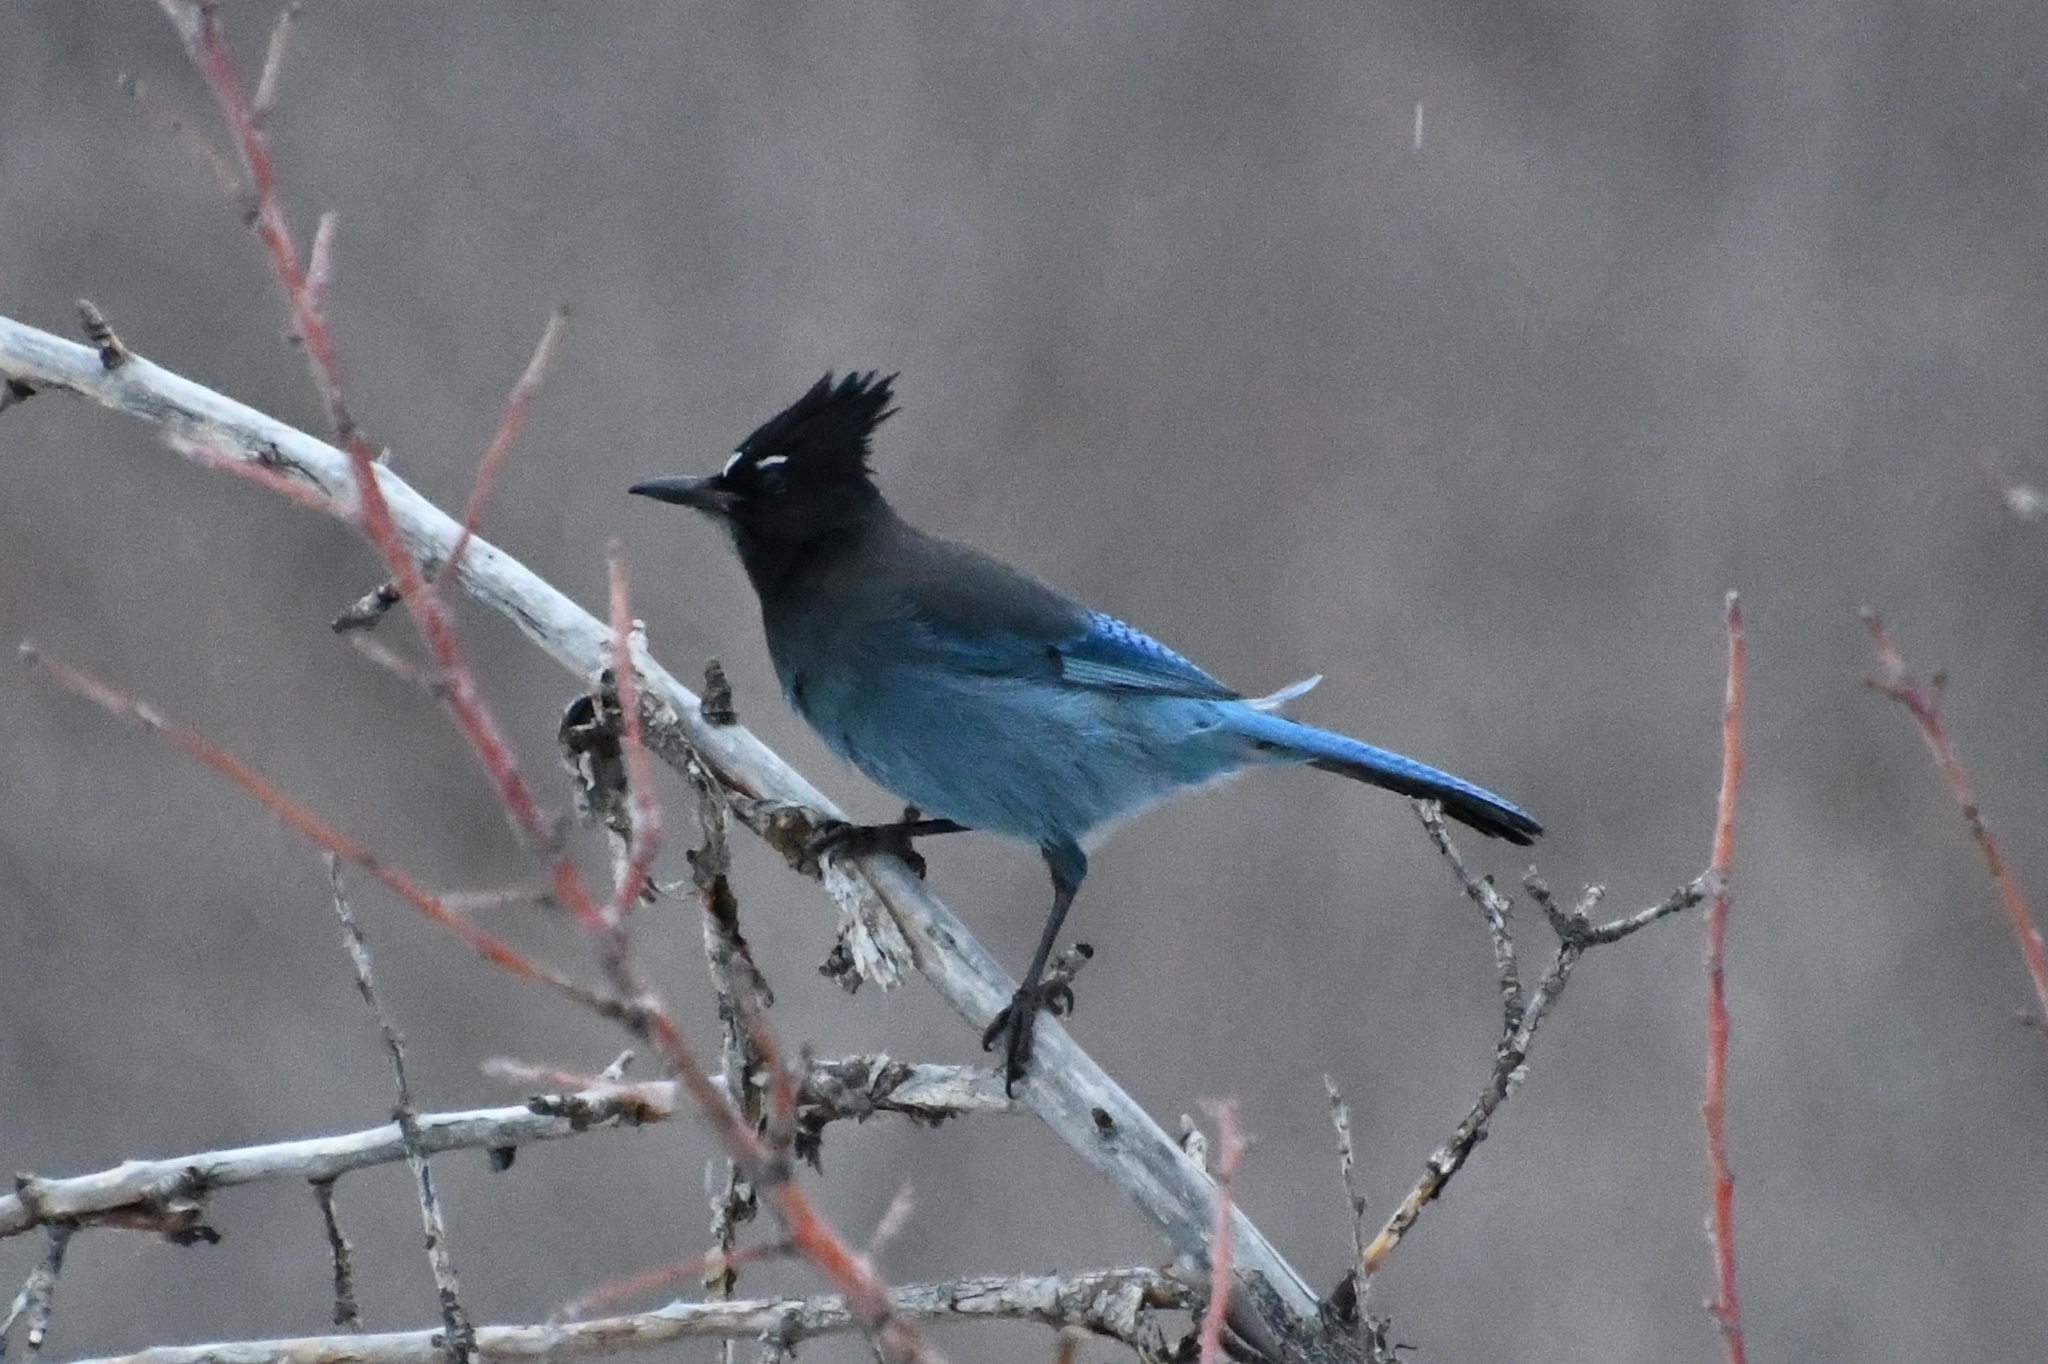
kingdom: Animalia
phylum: Chordata
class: Aves
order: Passeriformes
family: Corvidae
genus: Cyanocitta
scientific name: Cyanocitta stelleri
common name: Steller's jay
